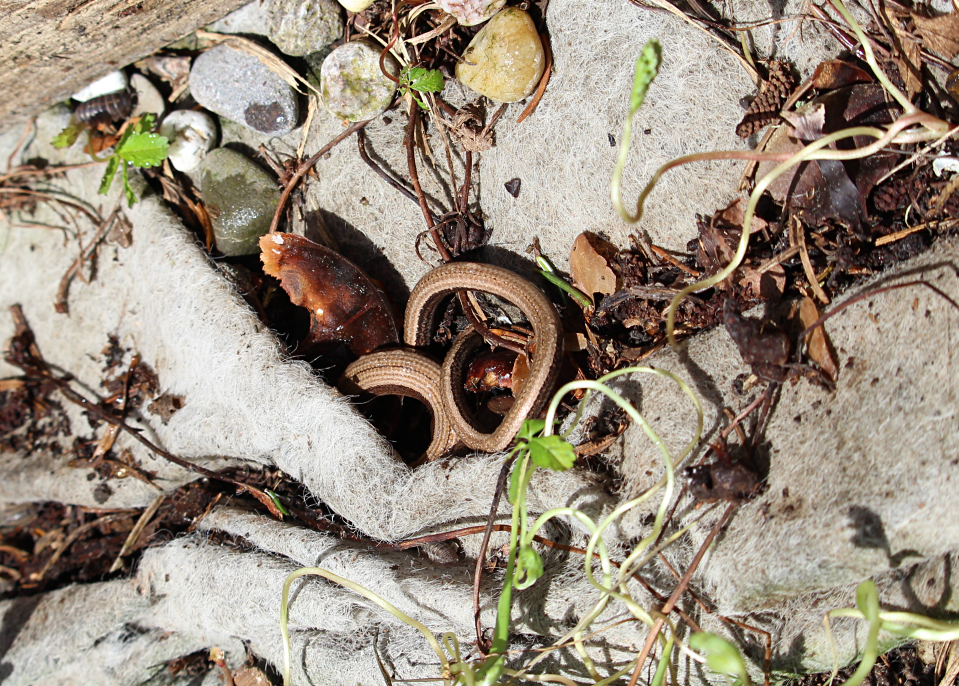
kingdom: Animalia
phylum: Chordata
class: Squamata
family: Anguidae
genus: Anguis
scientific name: Anguis fragilis
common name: Slow worm
